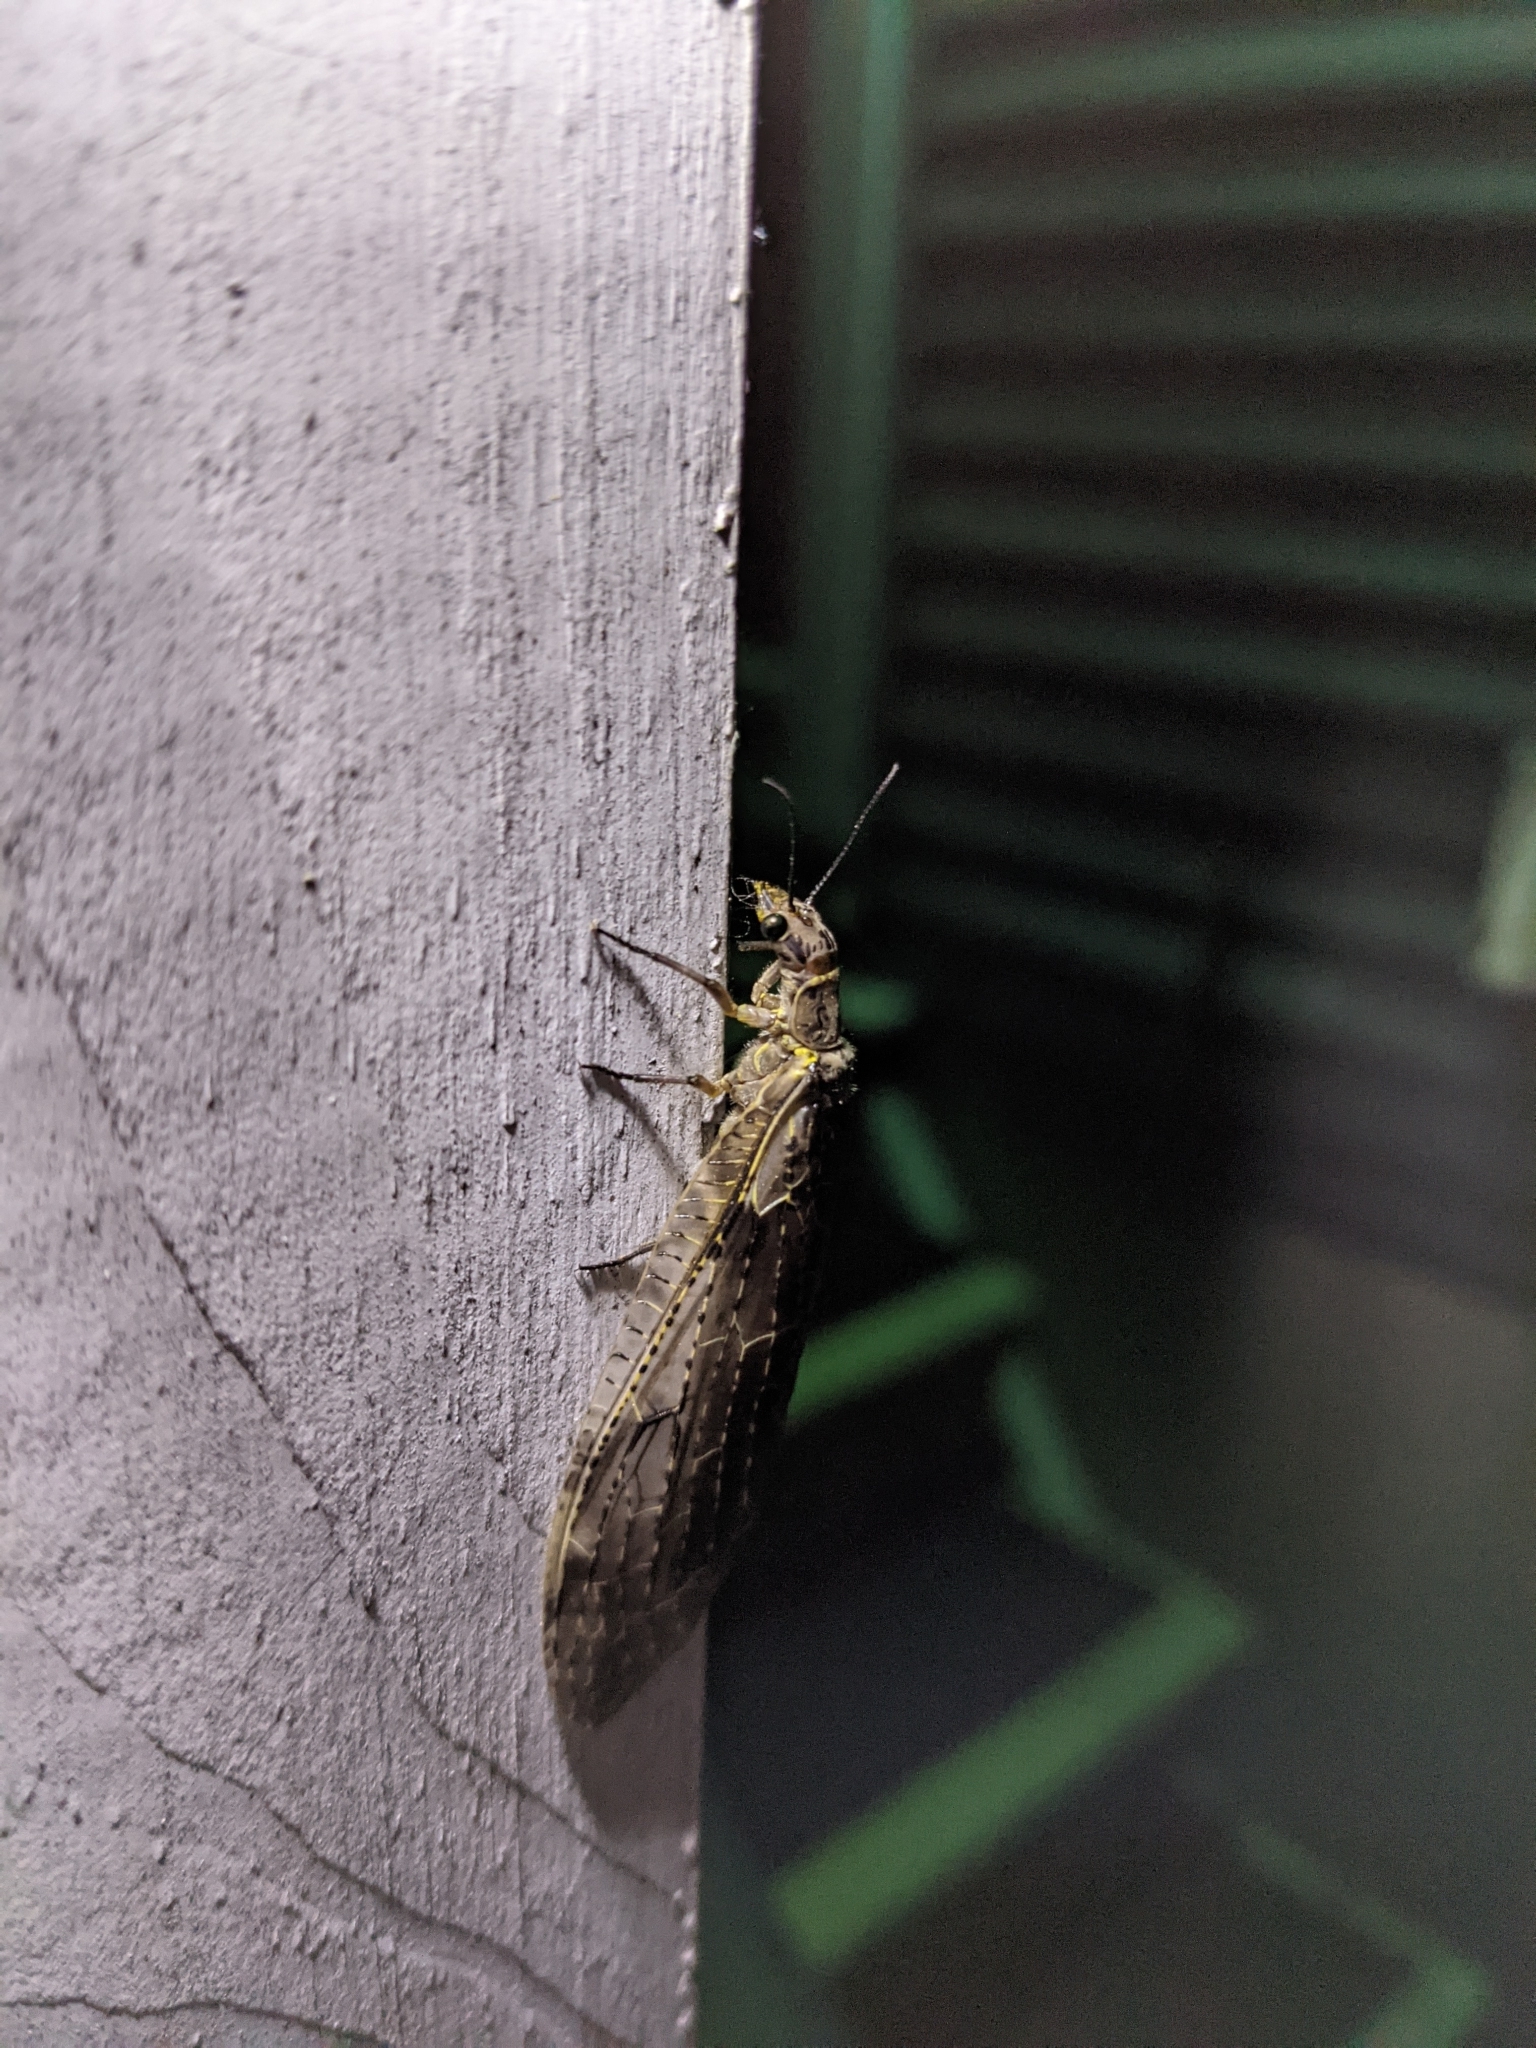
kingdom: Animalia
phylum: Arthropoda
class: Insecta
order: Megaloptera
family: Corydalidae
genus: Chauliodes
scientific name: Chauliodes rastricornis
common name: Spring fishfly
